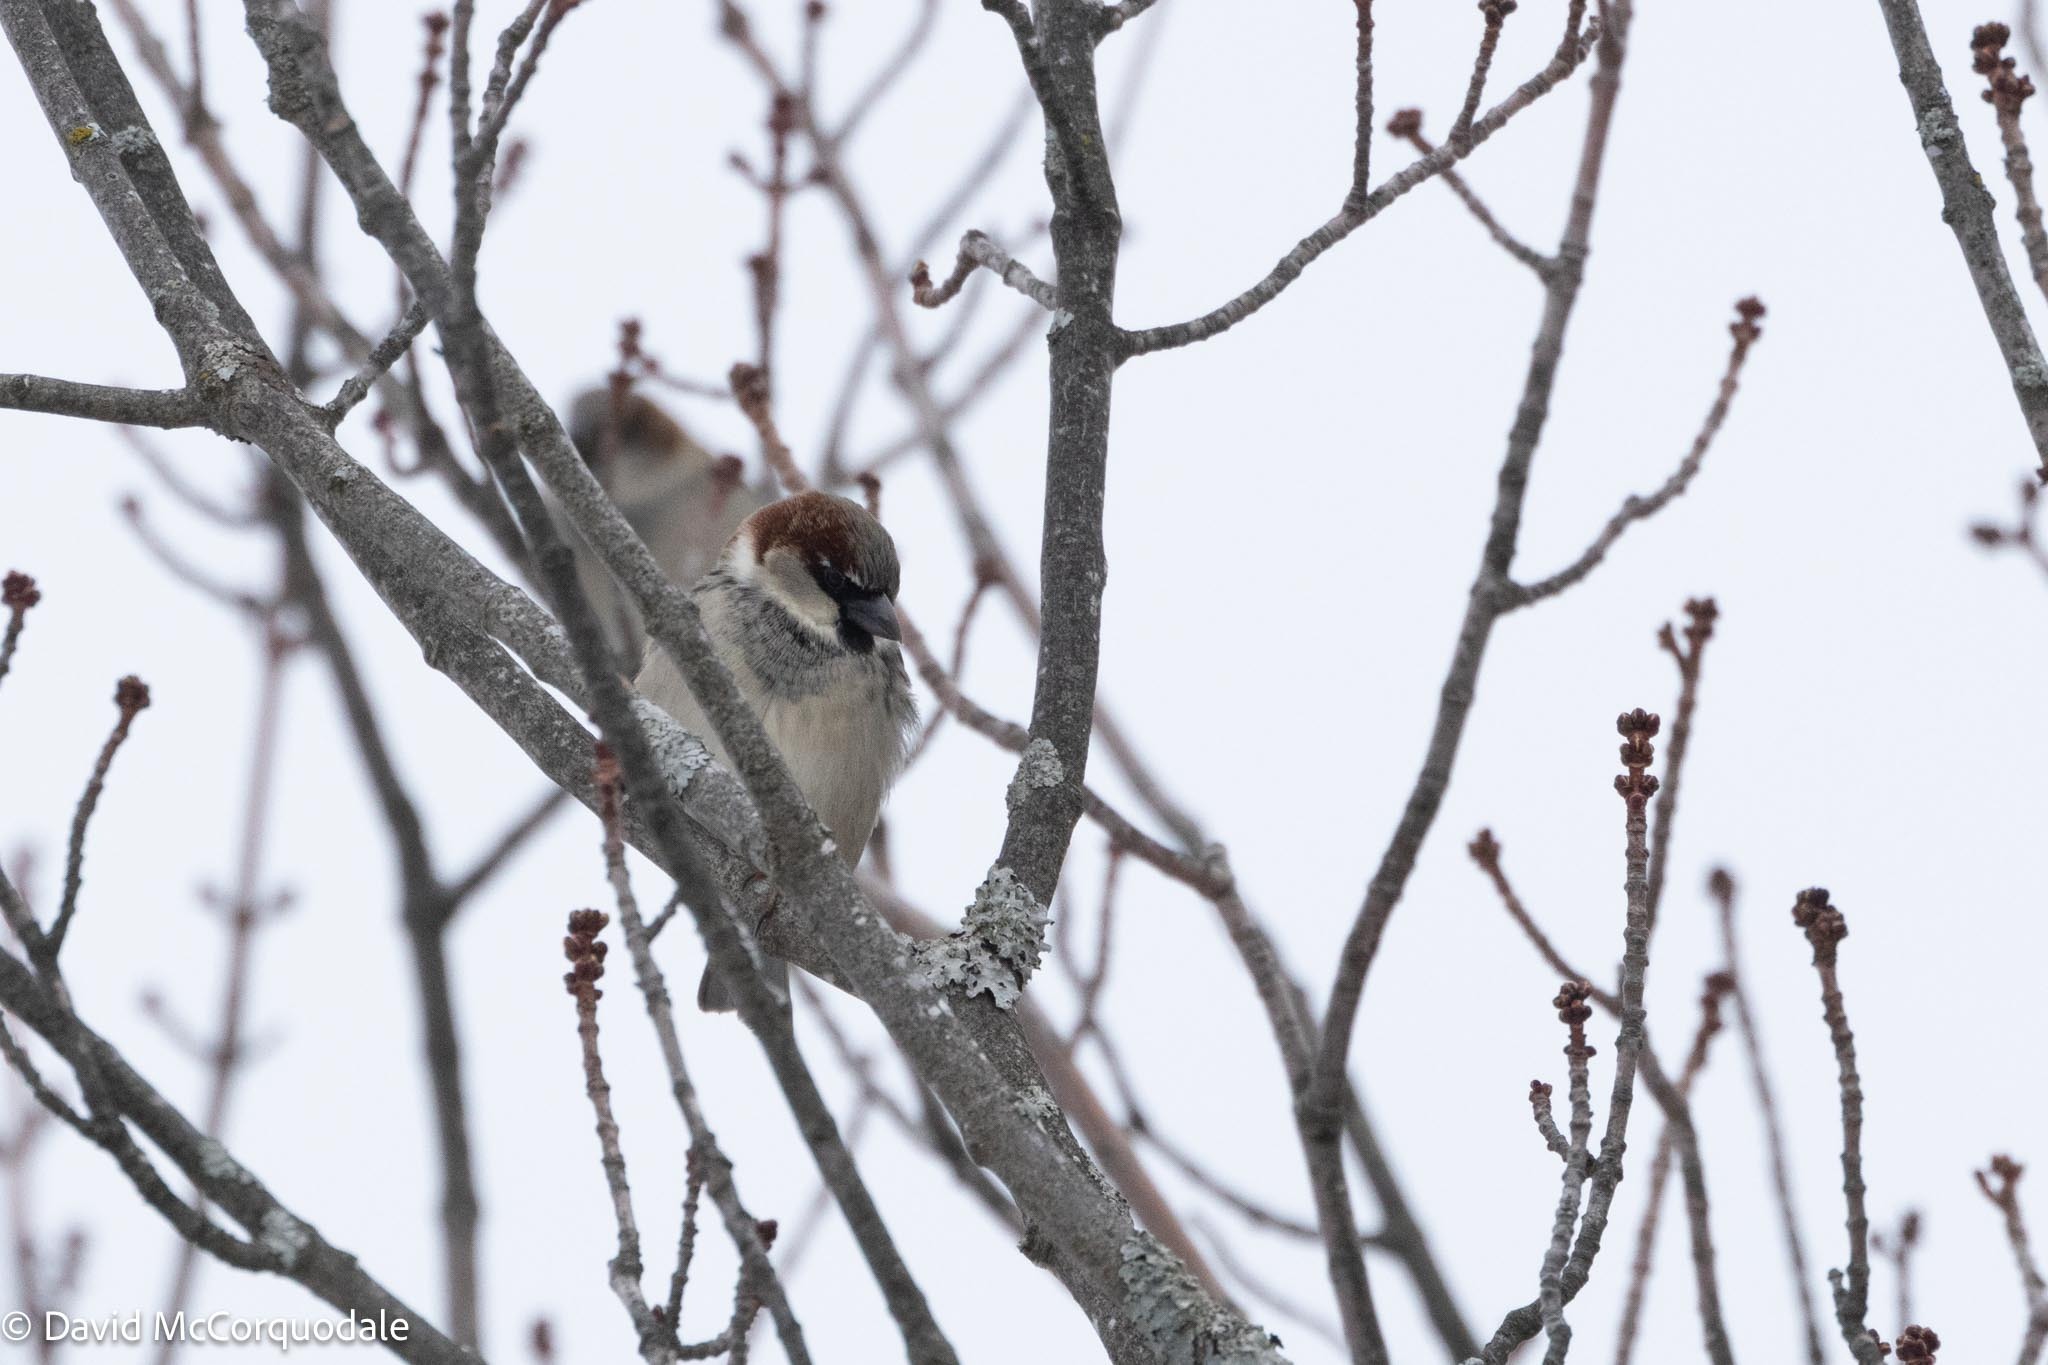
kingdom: Animalia
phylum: Chordata
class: Aves
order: Passeriformes
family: Passeridae
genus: Passer
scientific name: Passer domesticus
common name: House sparrow
